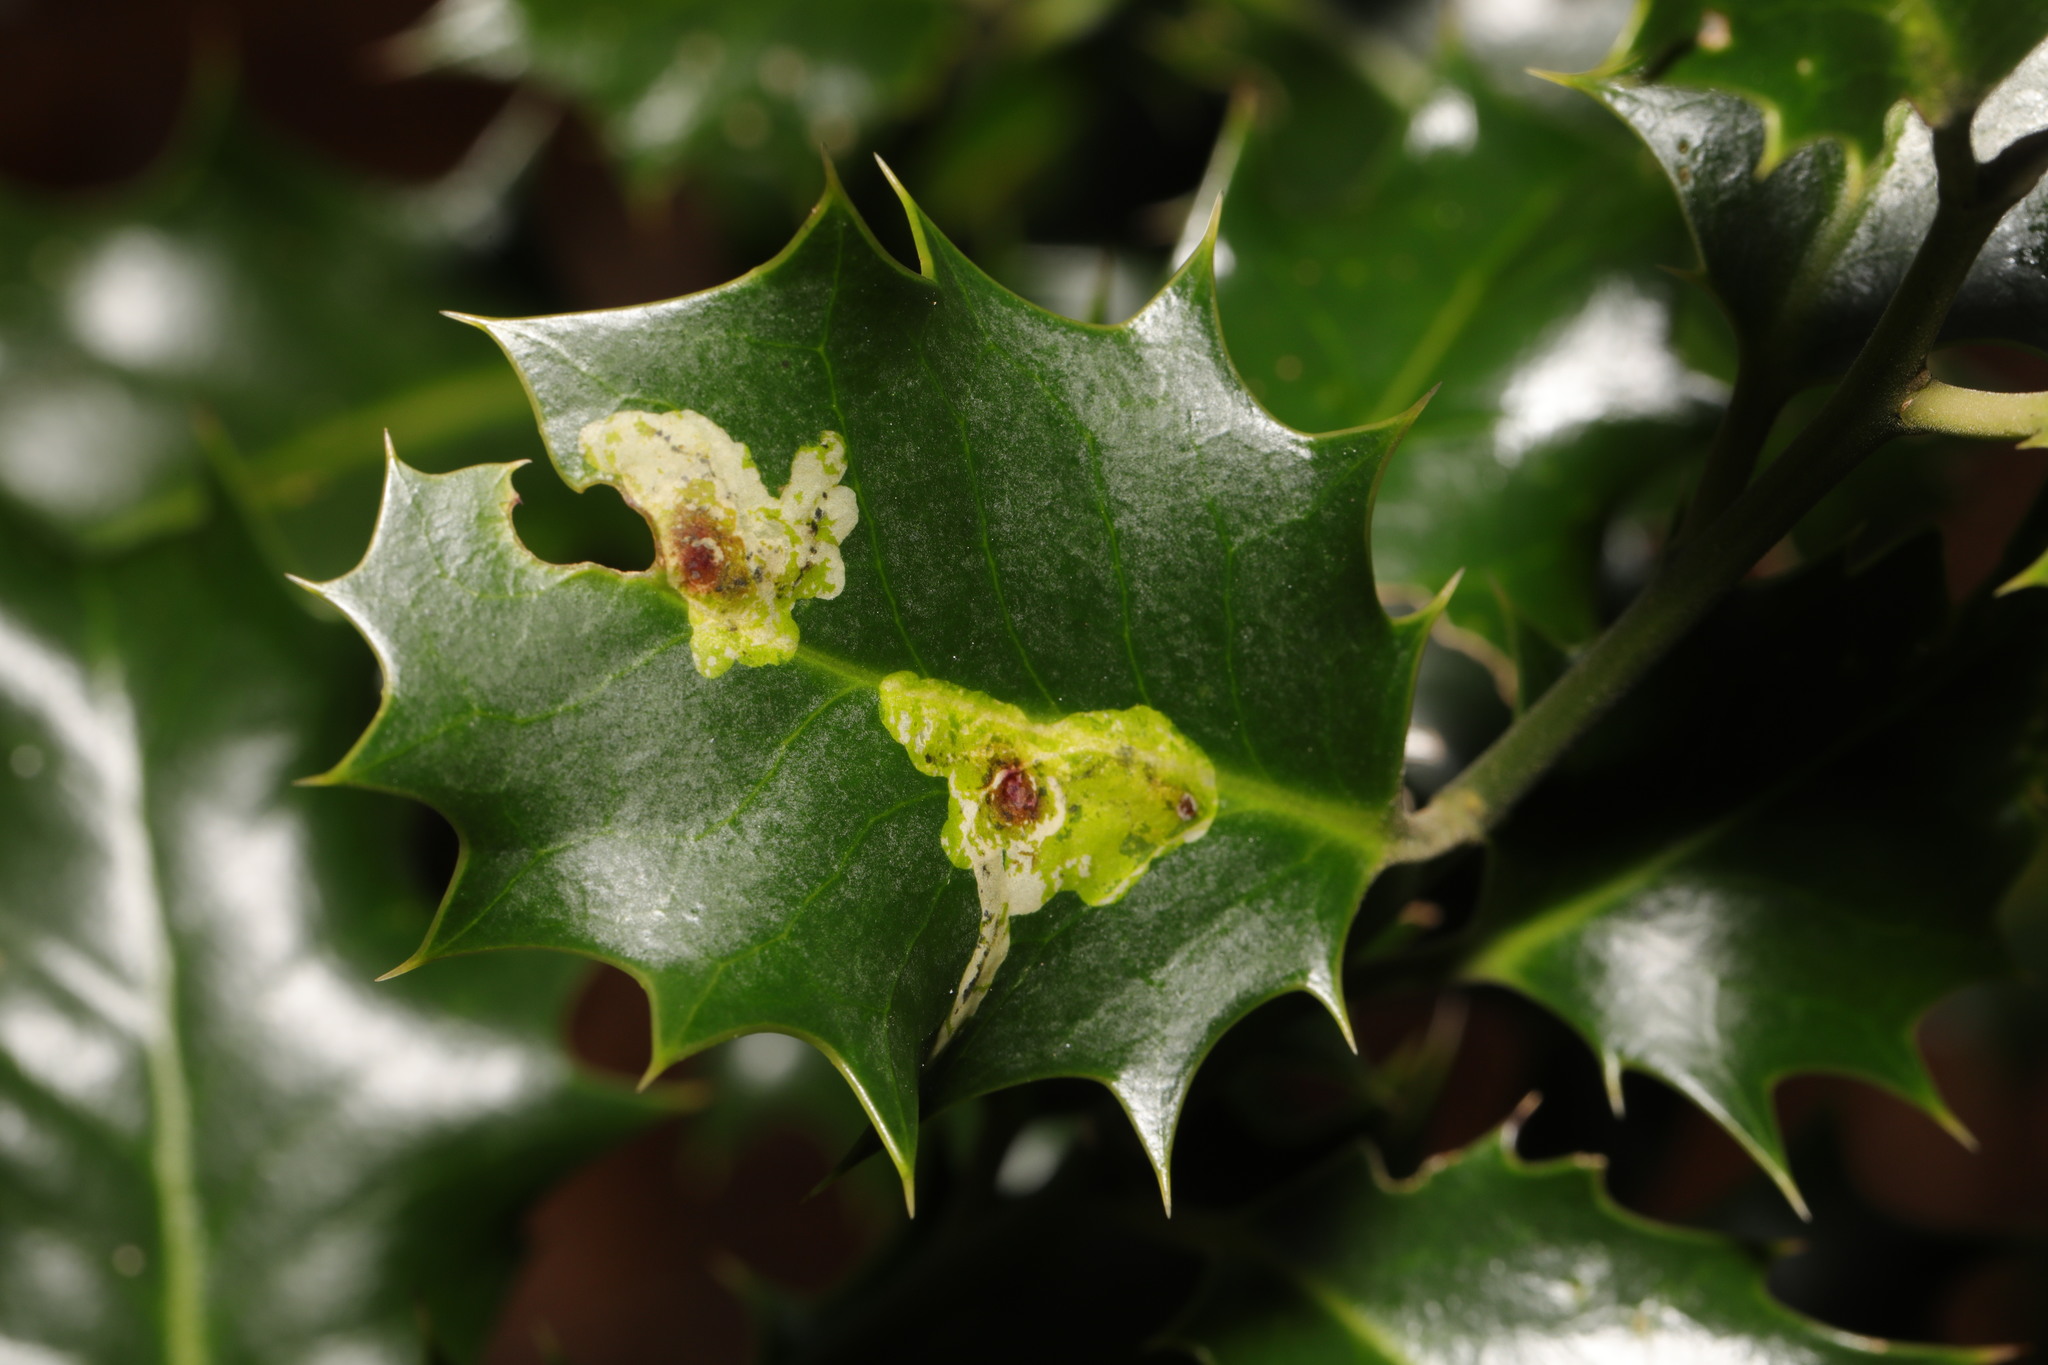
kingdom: Animalia
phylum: Arthropoda
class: Insecta
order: Diptera
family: Agromyzidae
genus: Phytomyza
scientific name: Phytomyza ilicis
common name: Holly leafminer
